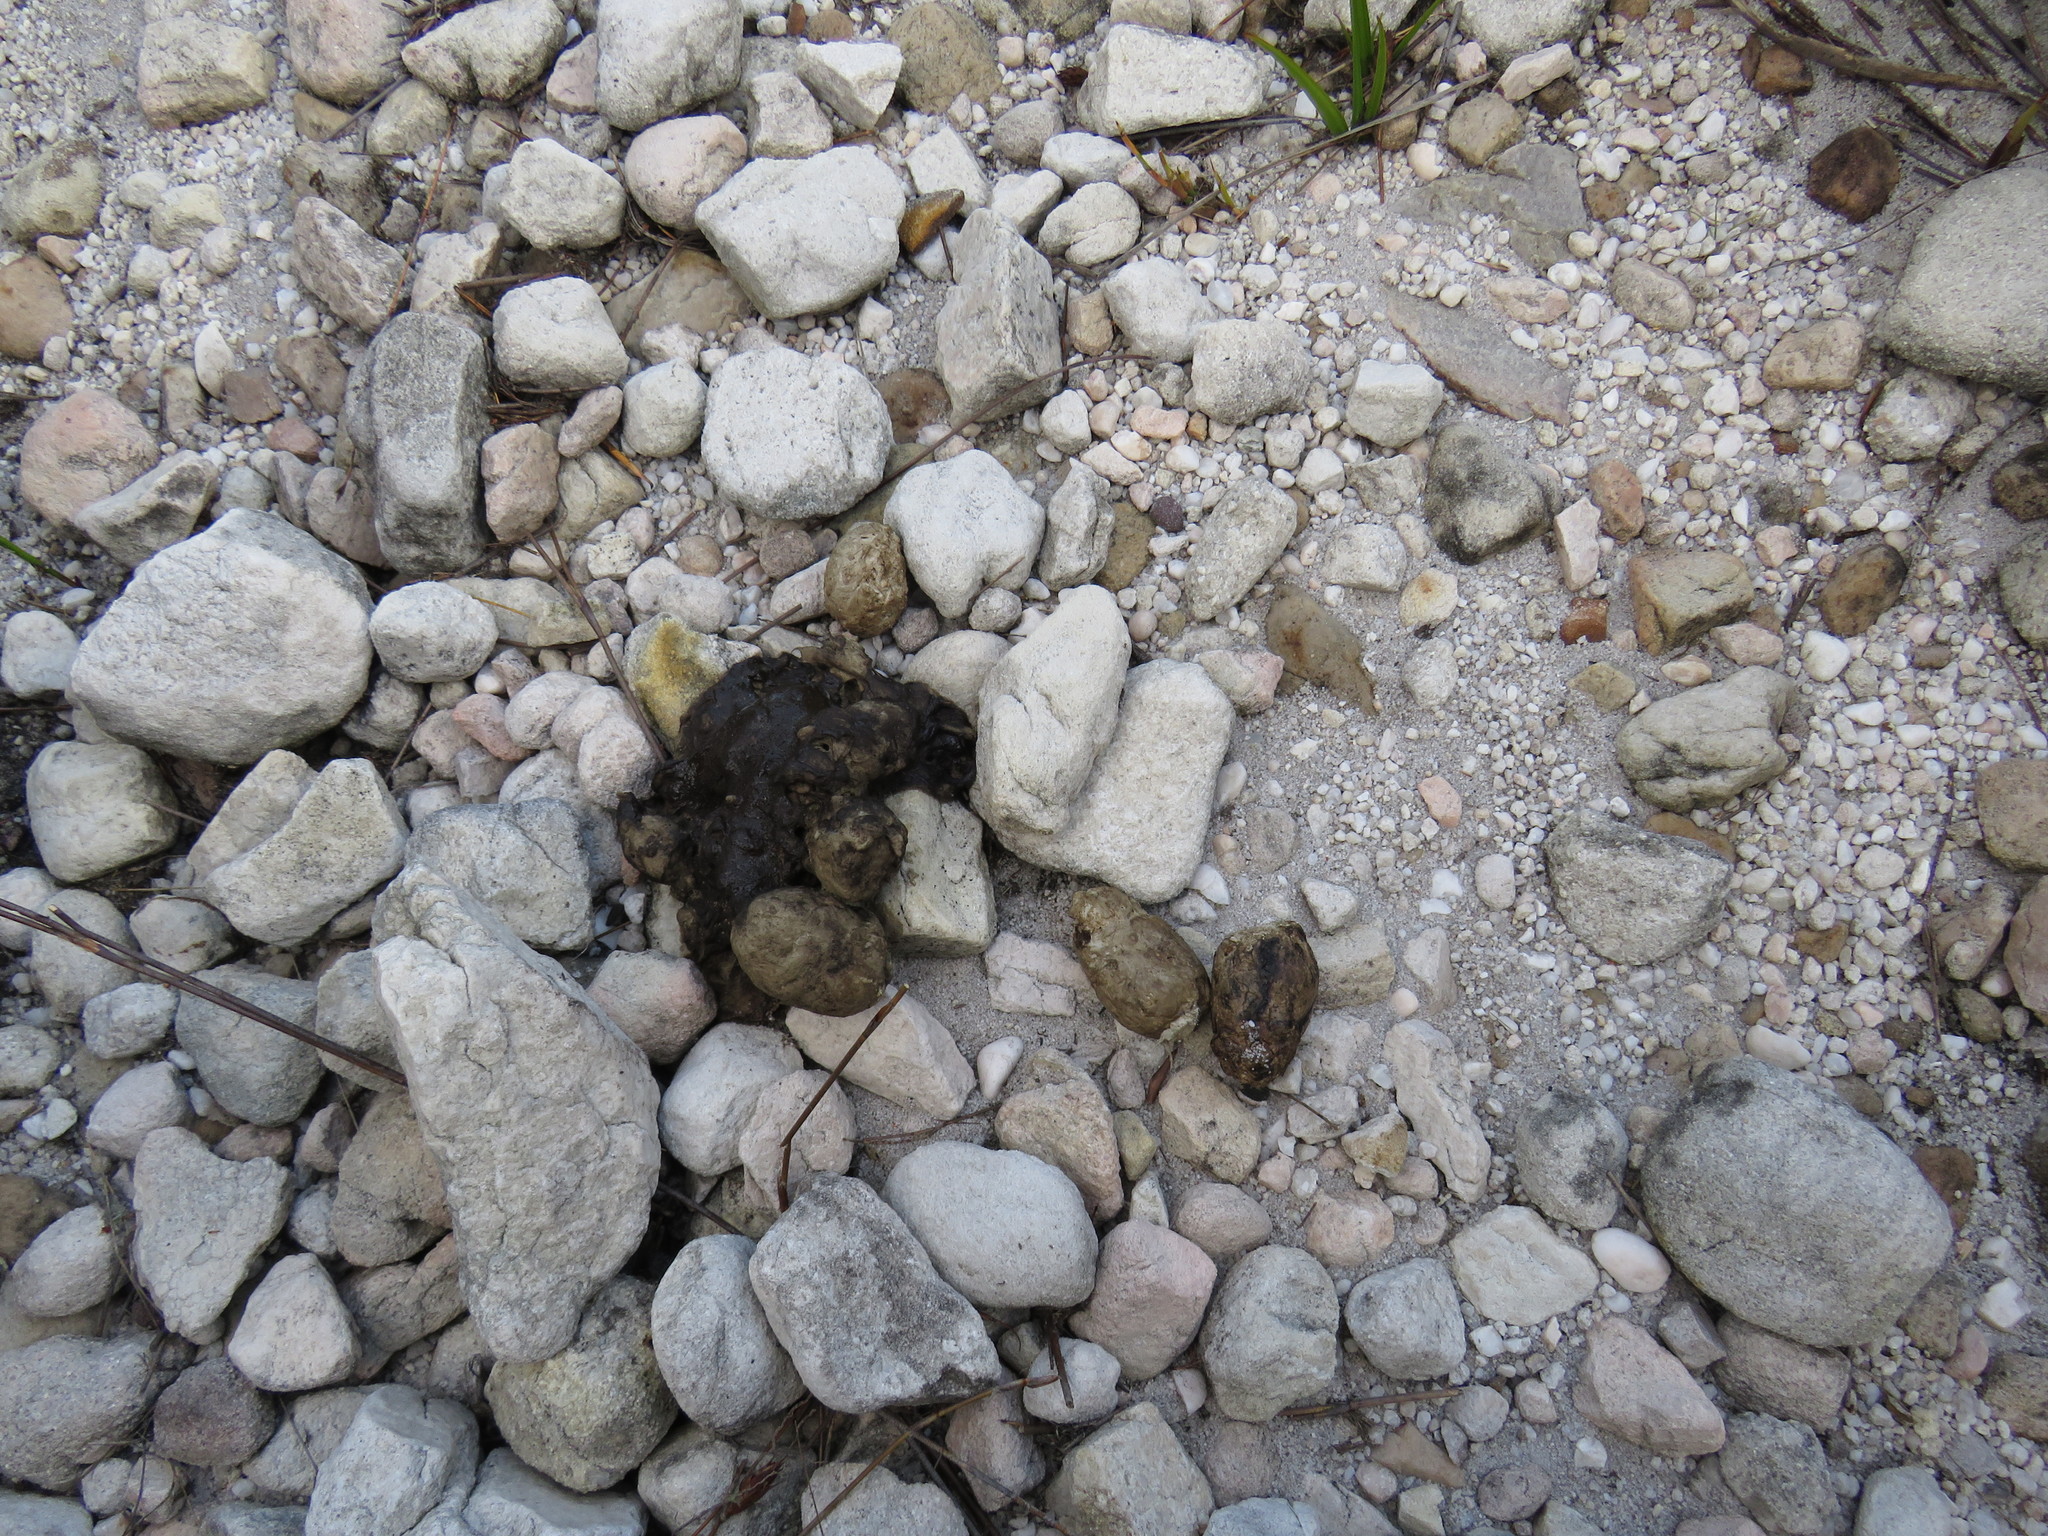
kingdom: Animalia
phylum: Chordata
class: Mammalia
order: Carnivora
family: Felidae
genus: Panthera
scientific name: Panthera pardus
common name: Leopard
